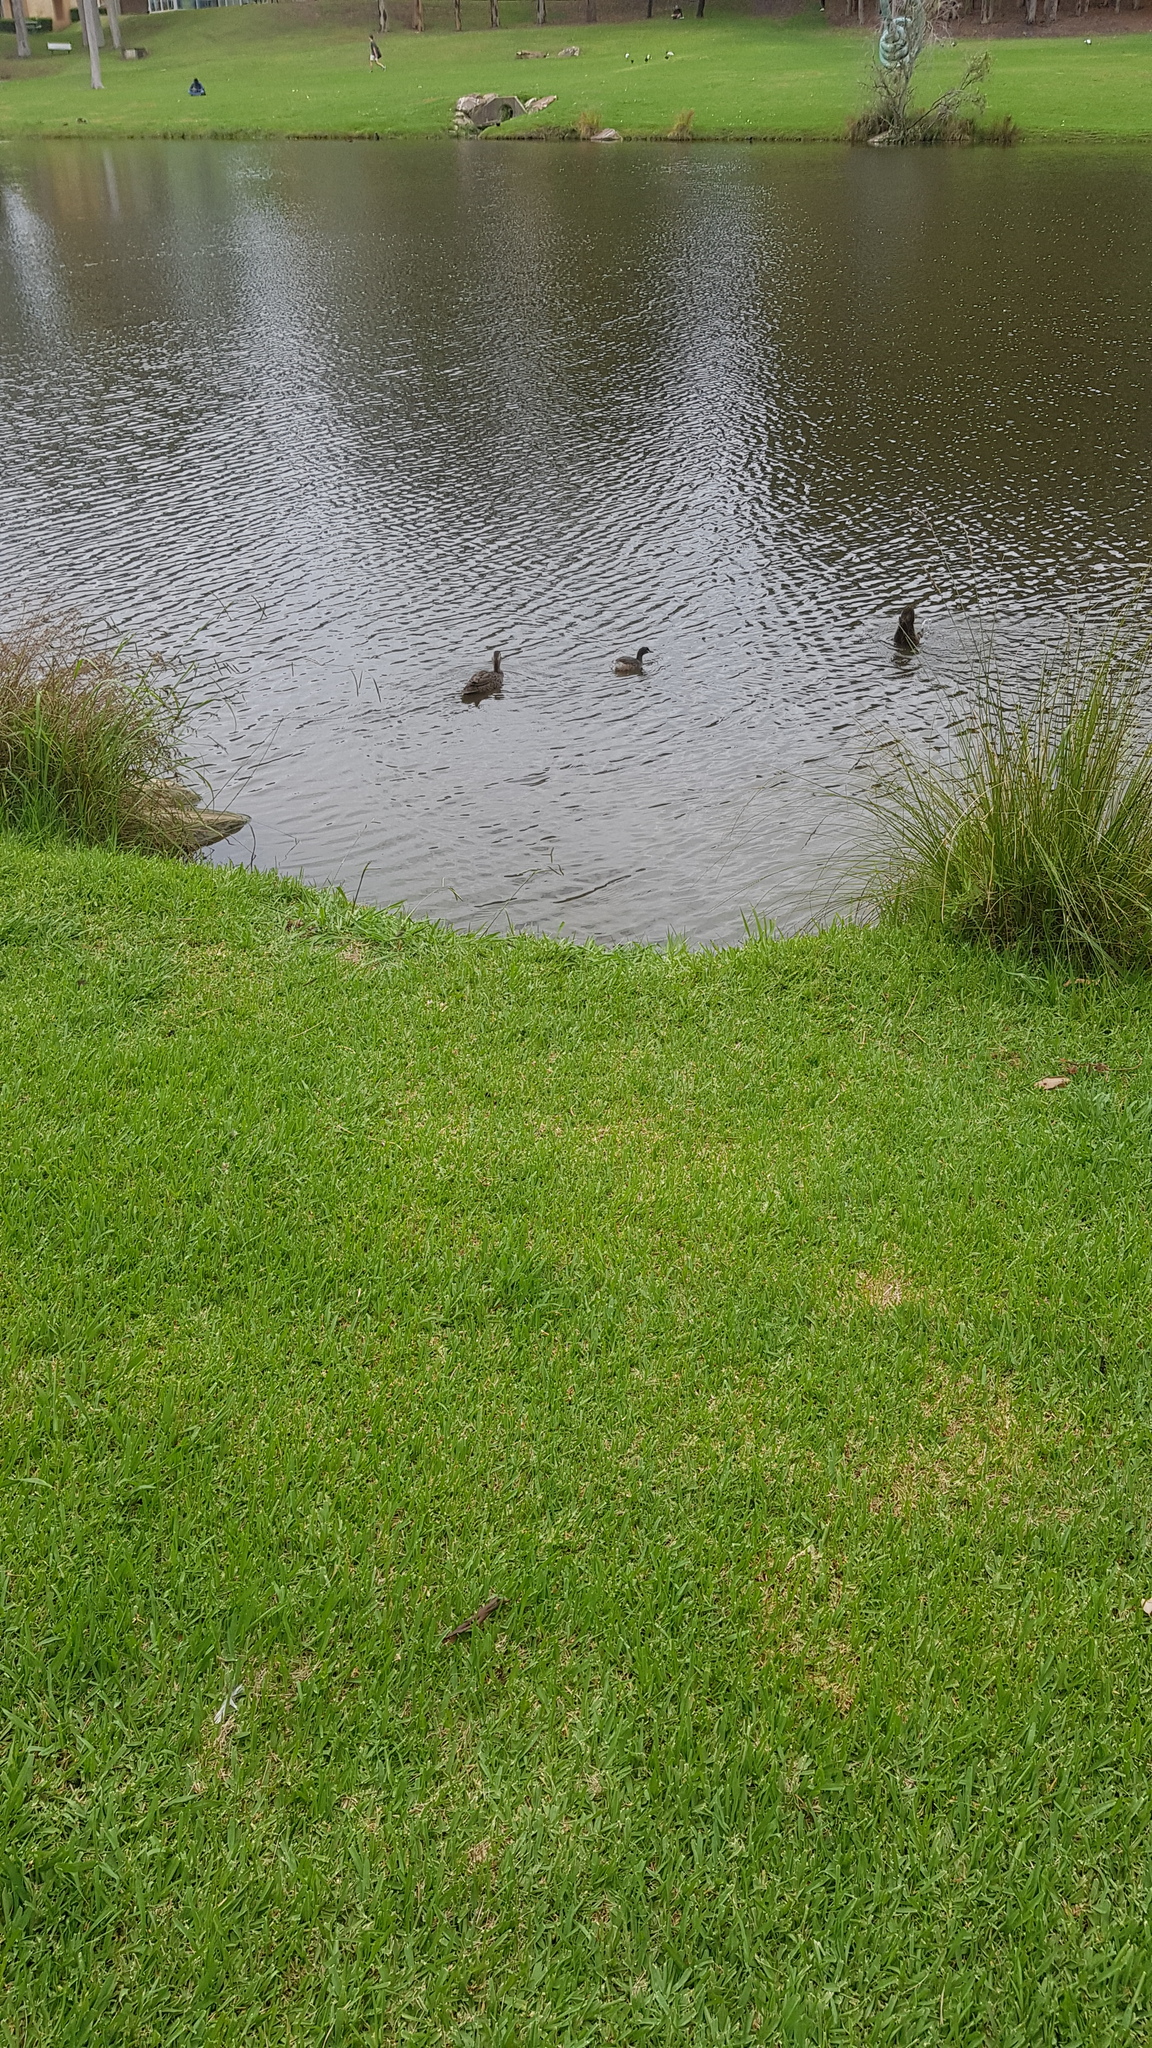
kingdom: Animalia
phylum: Chordata
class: Aves
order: Podicipediformes
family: Podicipedidae
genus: Tachybaptus
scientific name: Tachybaptus novaehollandiae
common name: Australasian grebe
